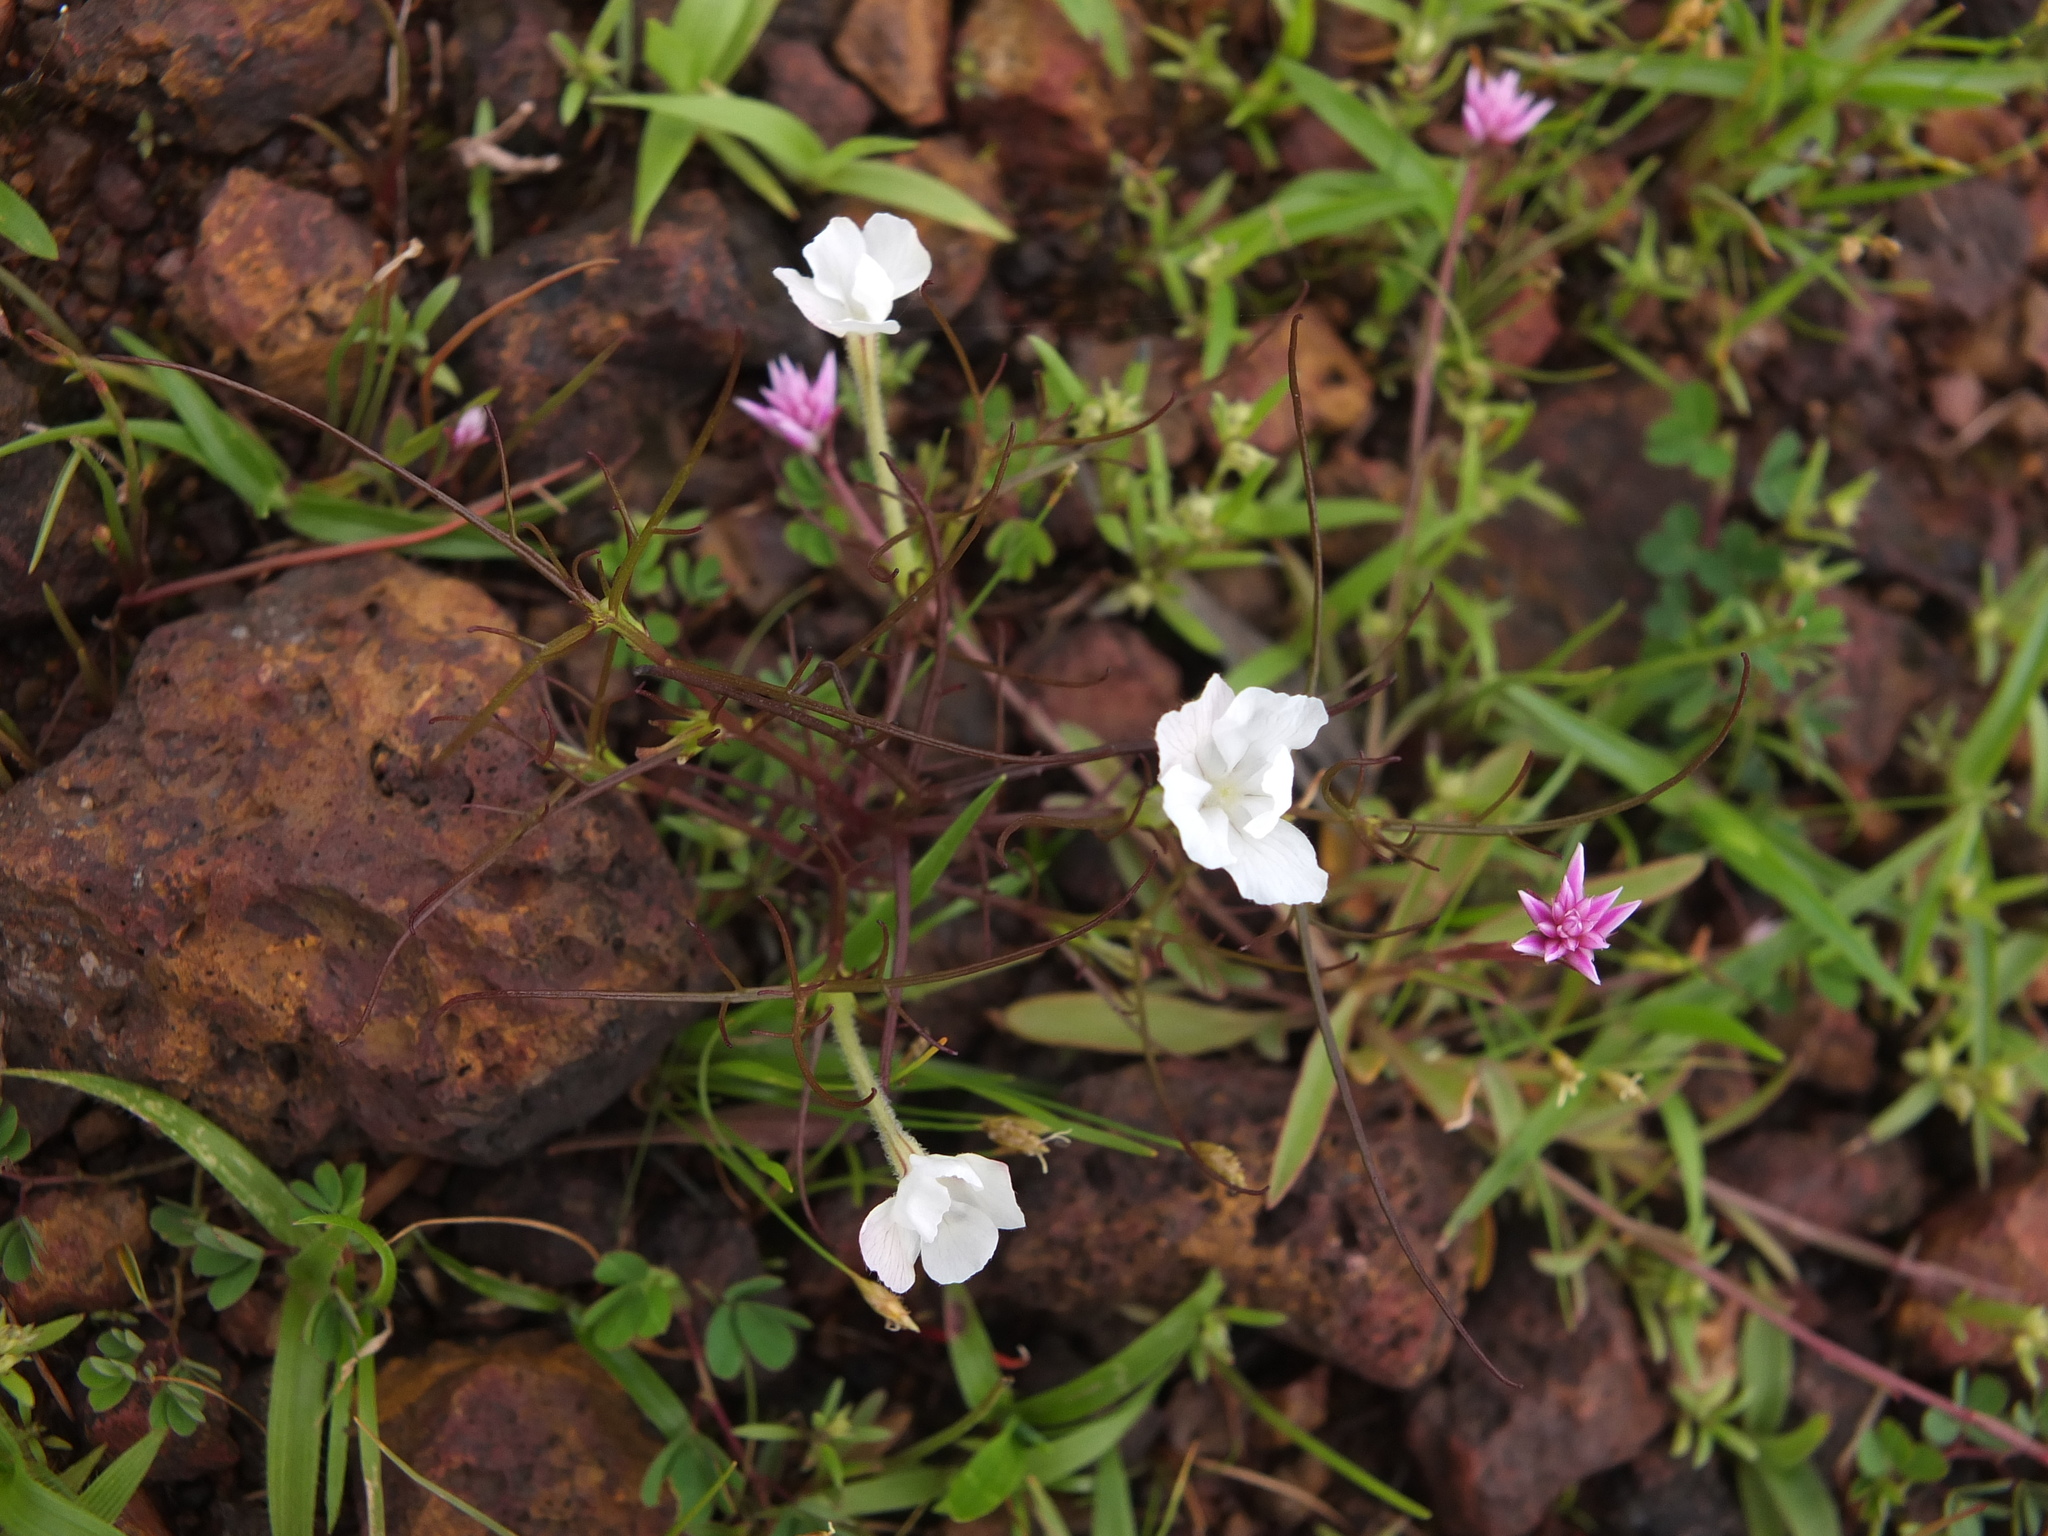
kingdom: Plantae
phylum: Tracheophyta
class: Magnoliopsida
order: Lamiales
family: Orobanchaceae
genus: Rhamphicarpa
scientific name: Rhamphicarpa fistulosa
